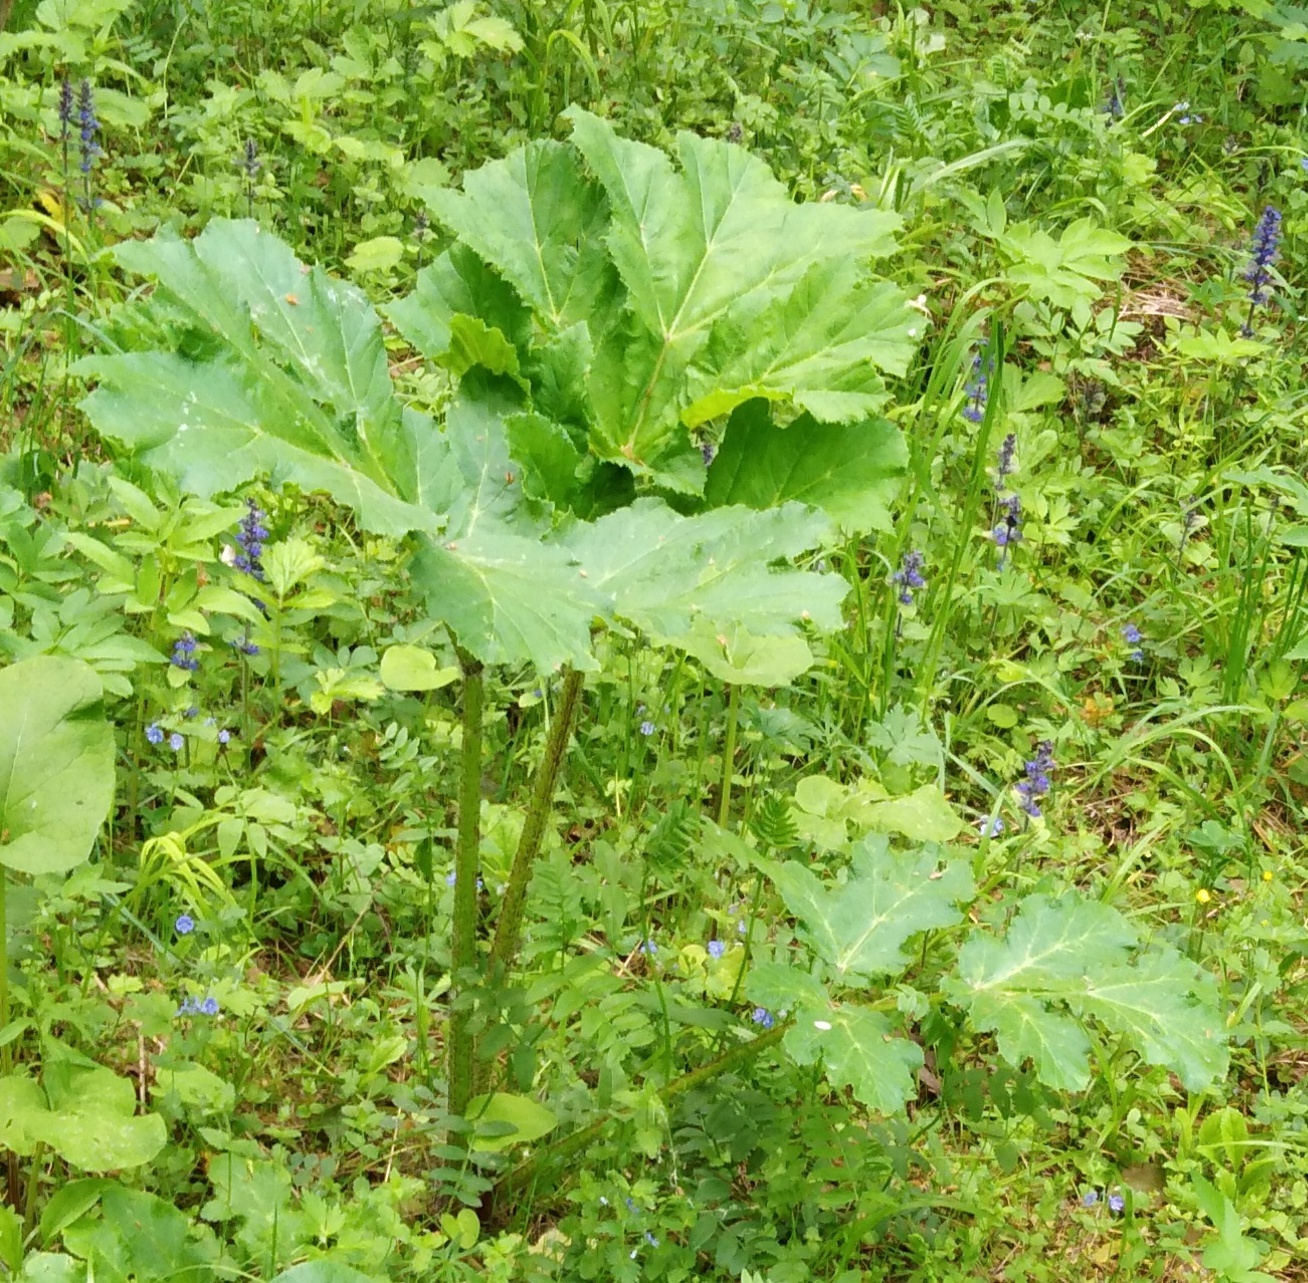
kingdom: Plantae
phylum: Tracheophyta
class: Magnoliopsida
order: Apiales
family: Apiaceae
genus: Heracleum
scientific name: Heracleum sosnowskyi
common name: Sosnowsky's hogweed
